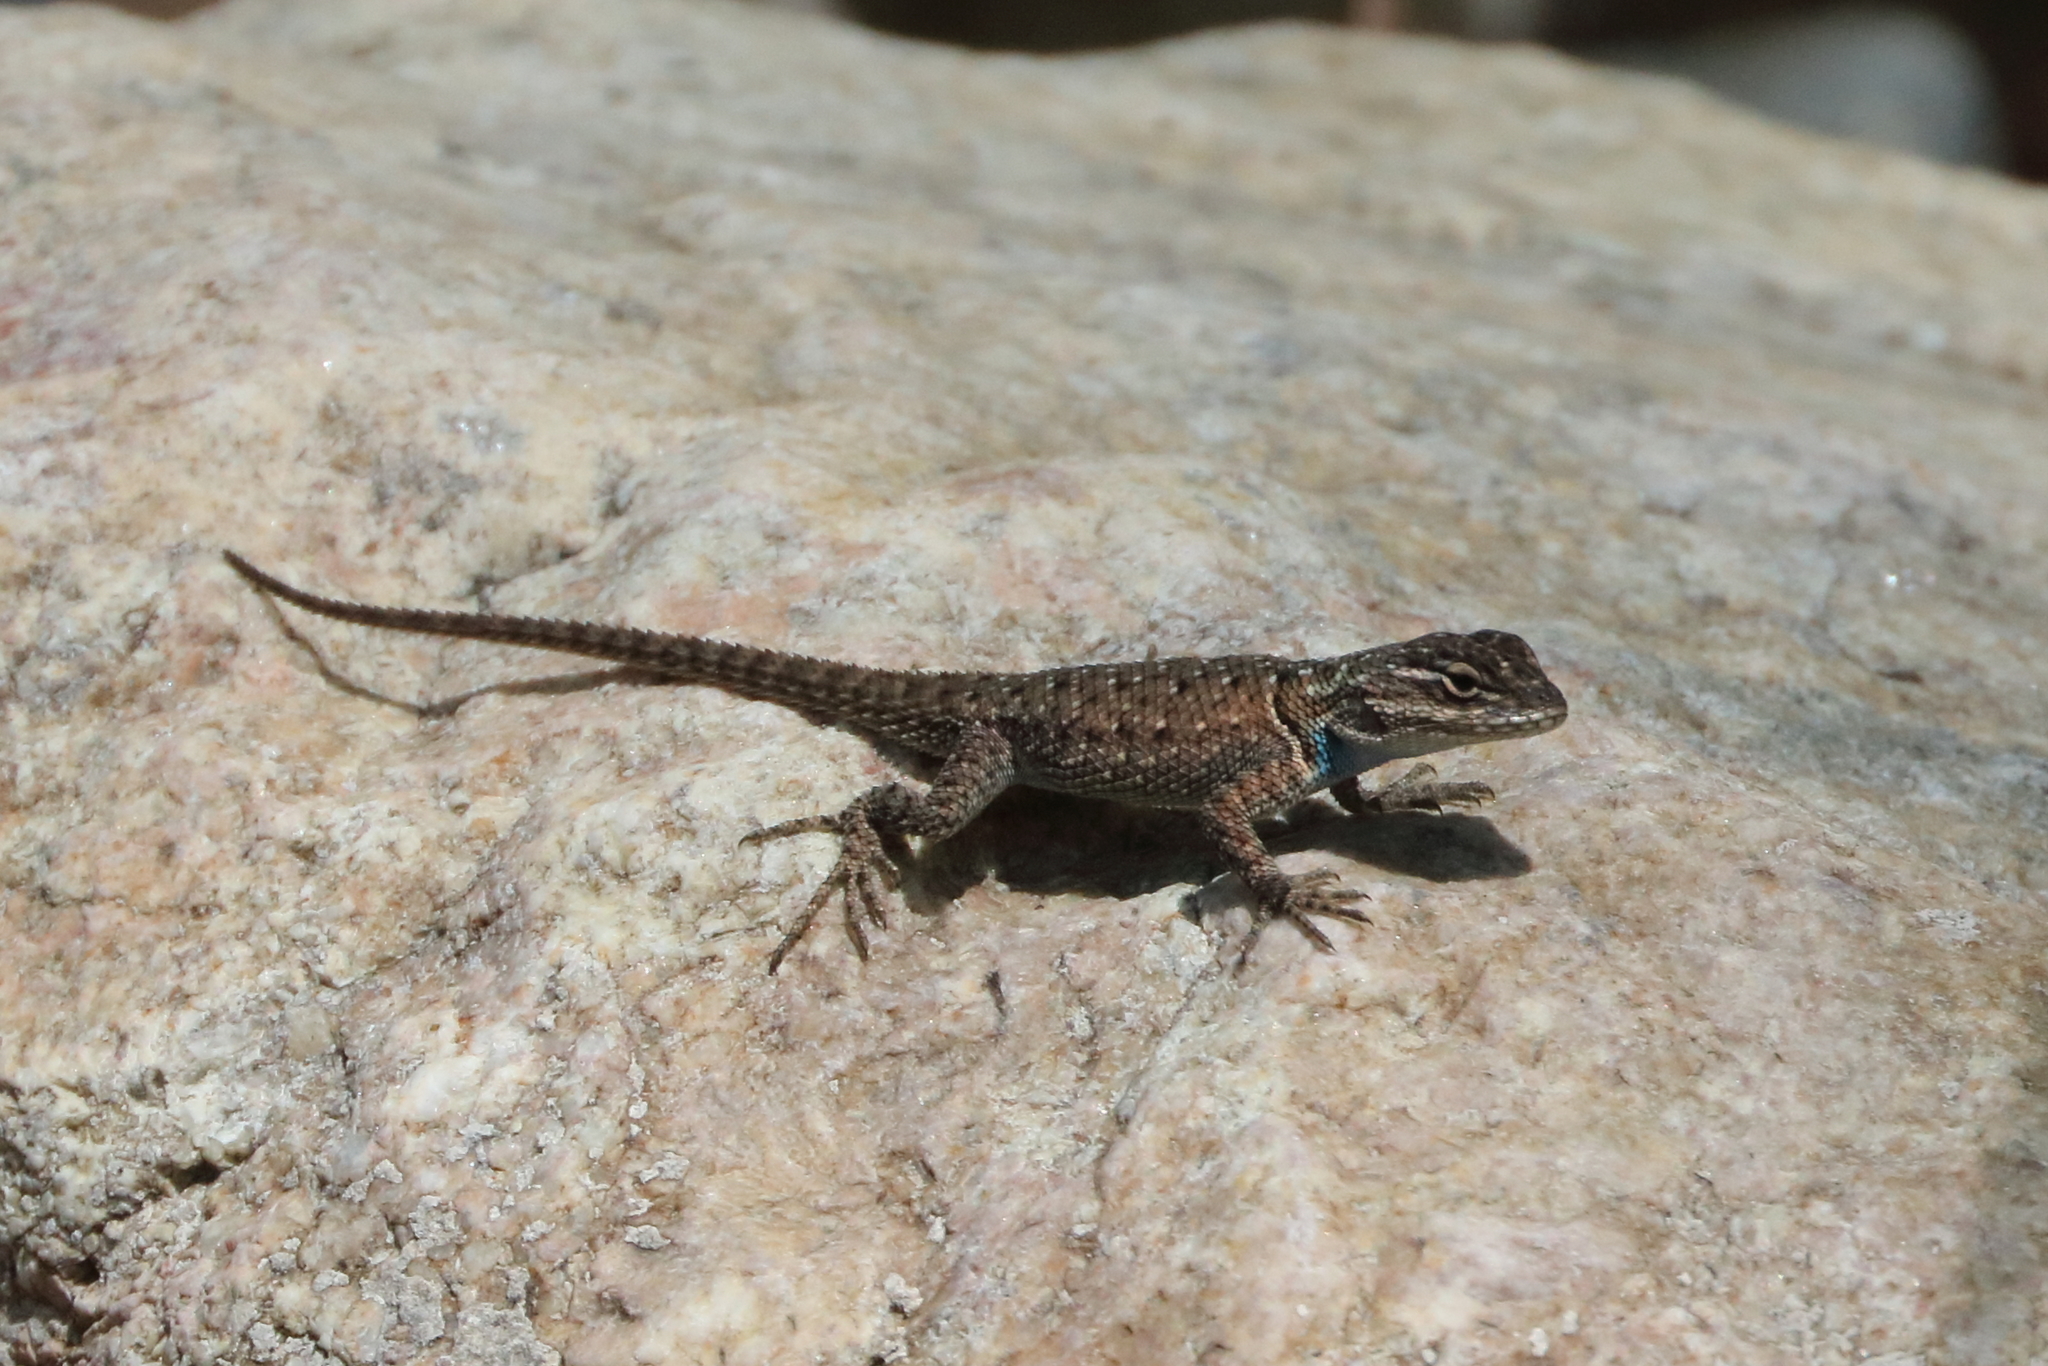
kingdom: Animalia
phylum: Chordata
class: Squamata
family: Phrynosomatidae
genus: Sceloporus
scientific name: Sceloporus jarrovii
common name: Yarrow's spiny lizard
